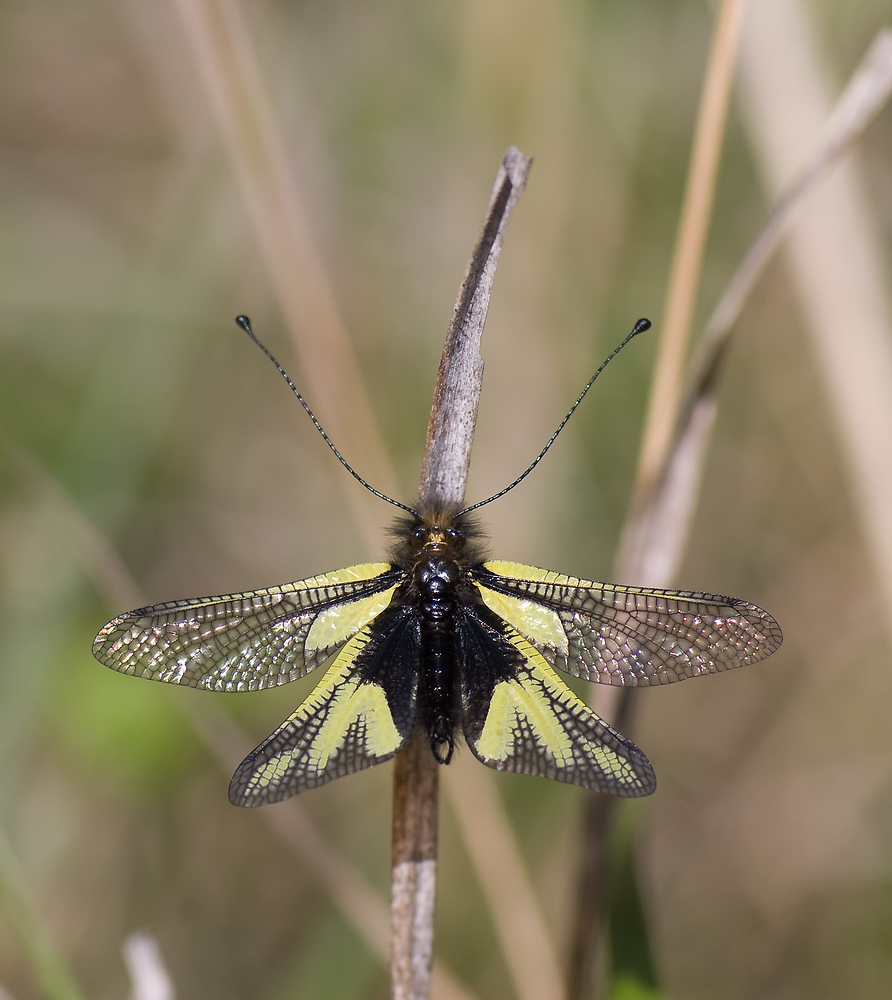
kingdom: Animalia
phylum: Arthropoda
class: Insecta
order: Neuroptera
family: Ascalaphidae
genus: Libelloides
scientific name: Libelloides coccajus
